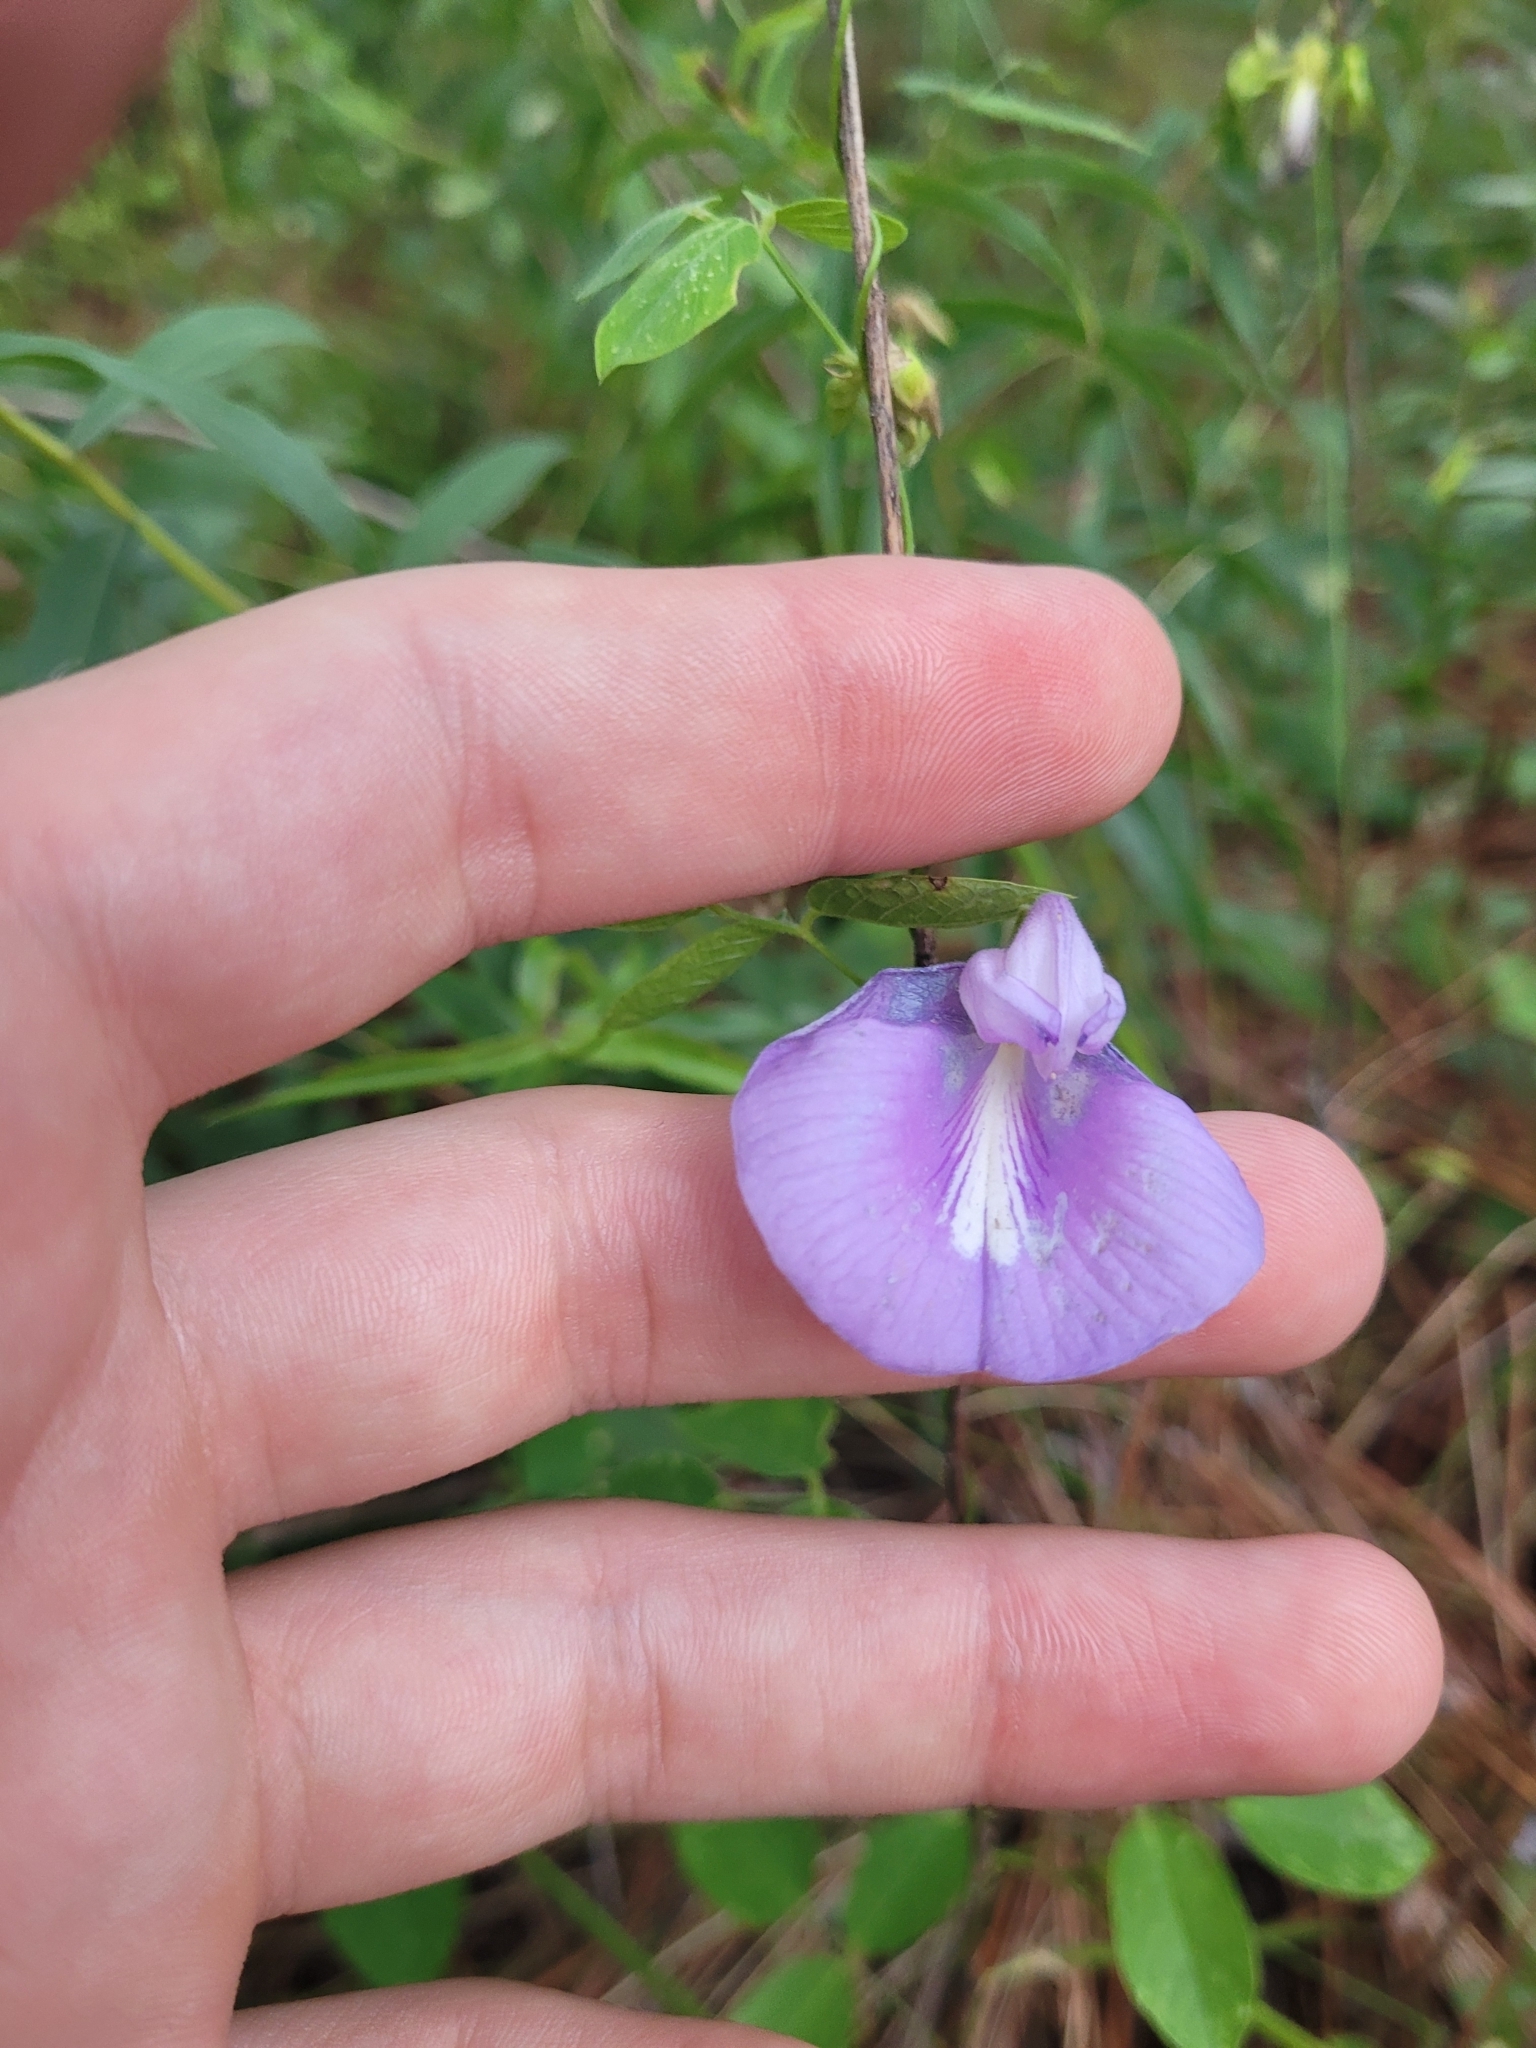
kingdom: Plantae
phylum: Tracheophyta
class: Magnoliopsida
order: Fabales
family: Fabaceae
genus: Centrosema
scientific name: Centrosema virginianum
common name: Butterfly-pea
